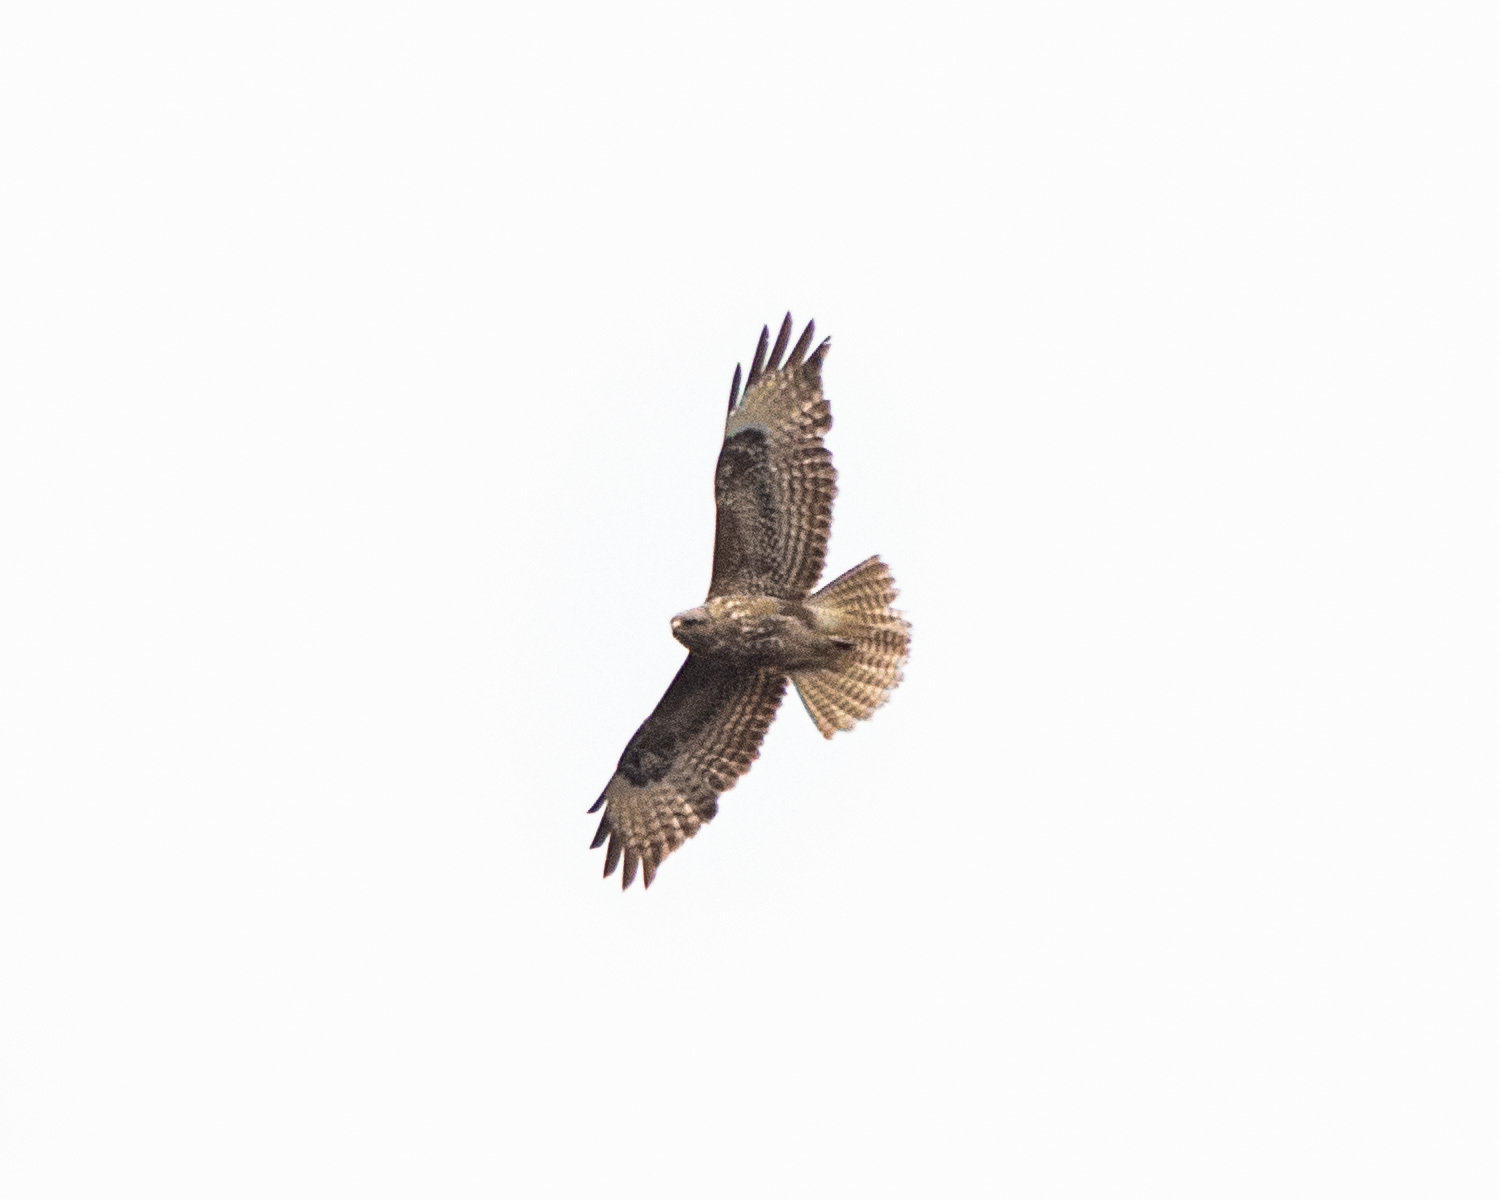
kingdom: Animalia
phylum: Chordata
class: Aves
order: Accipitriformes
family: Accipitridae
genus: Buteo
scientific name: Buteo buteo
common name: Common buzzard
